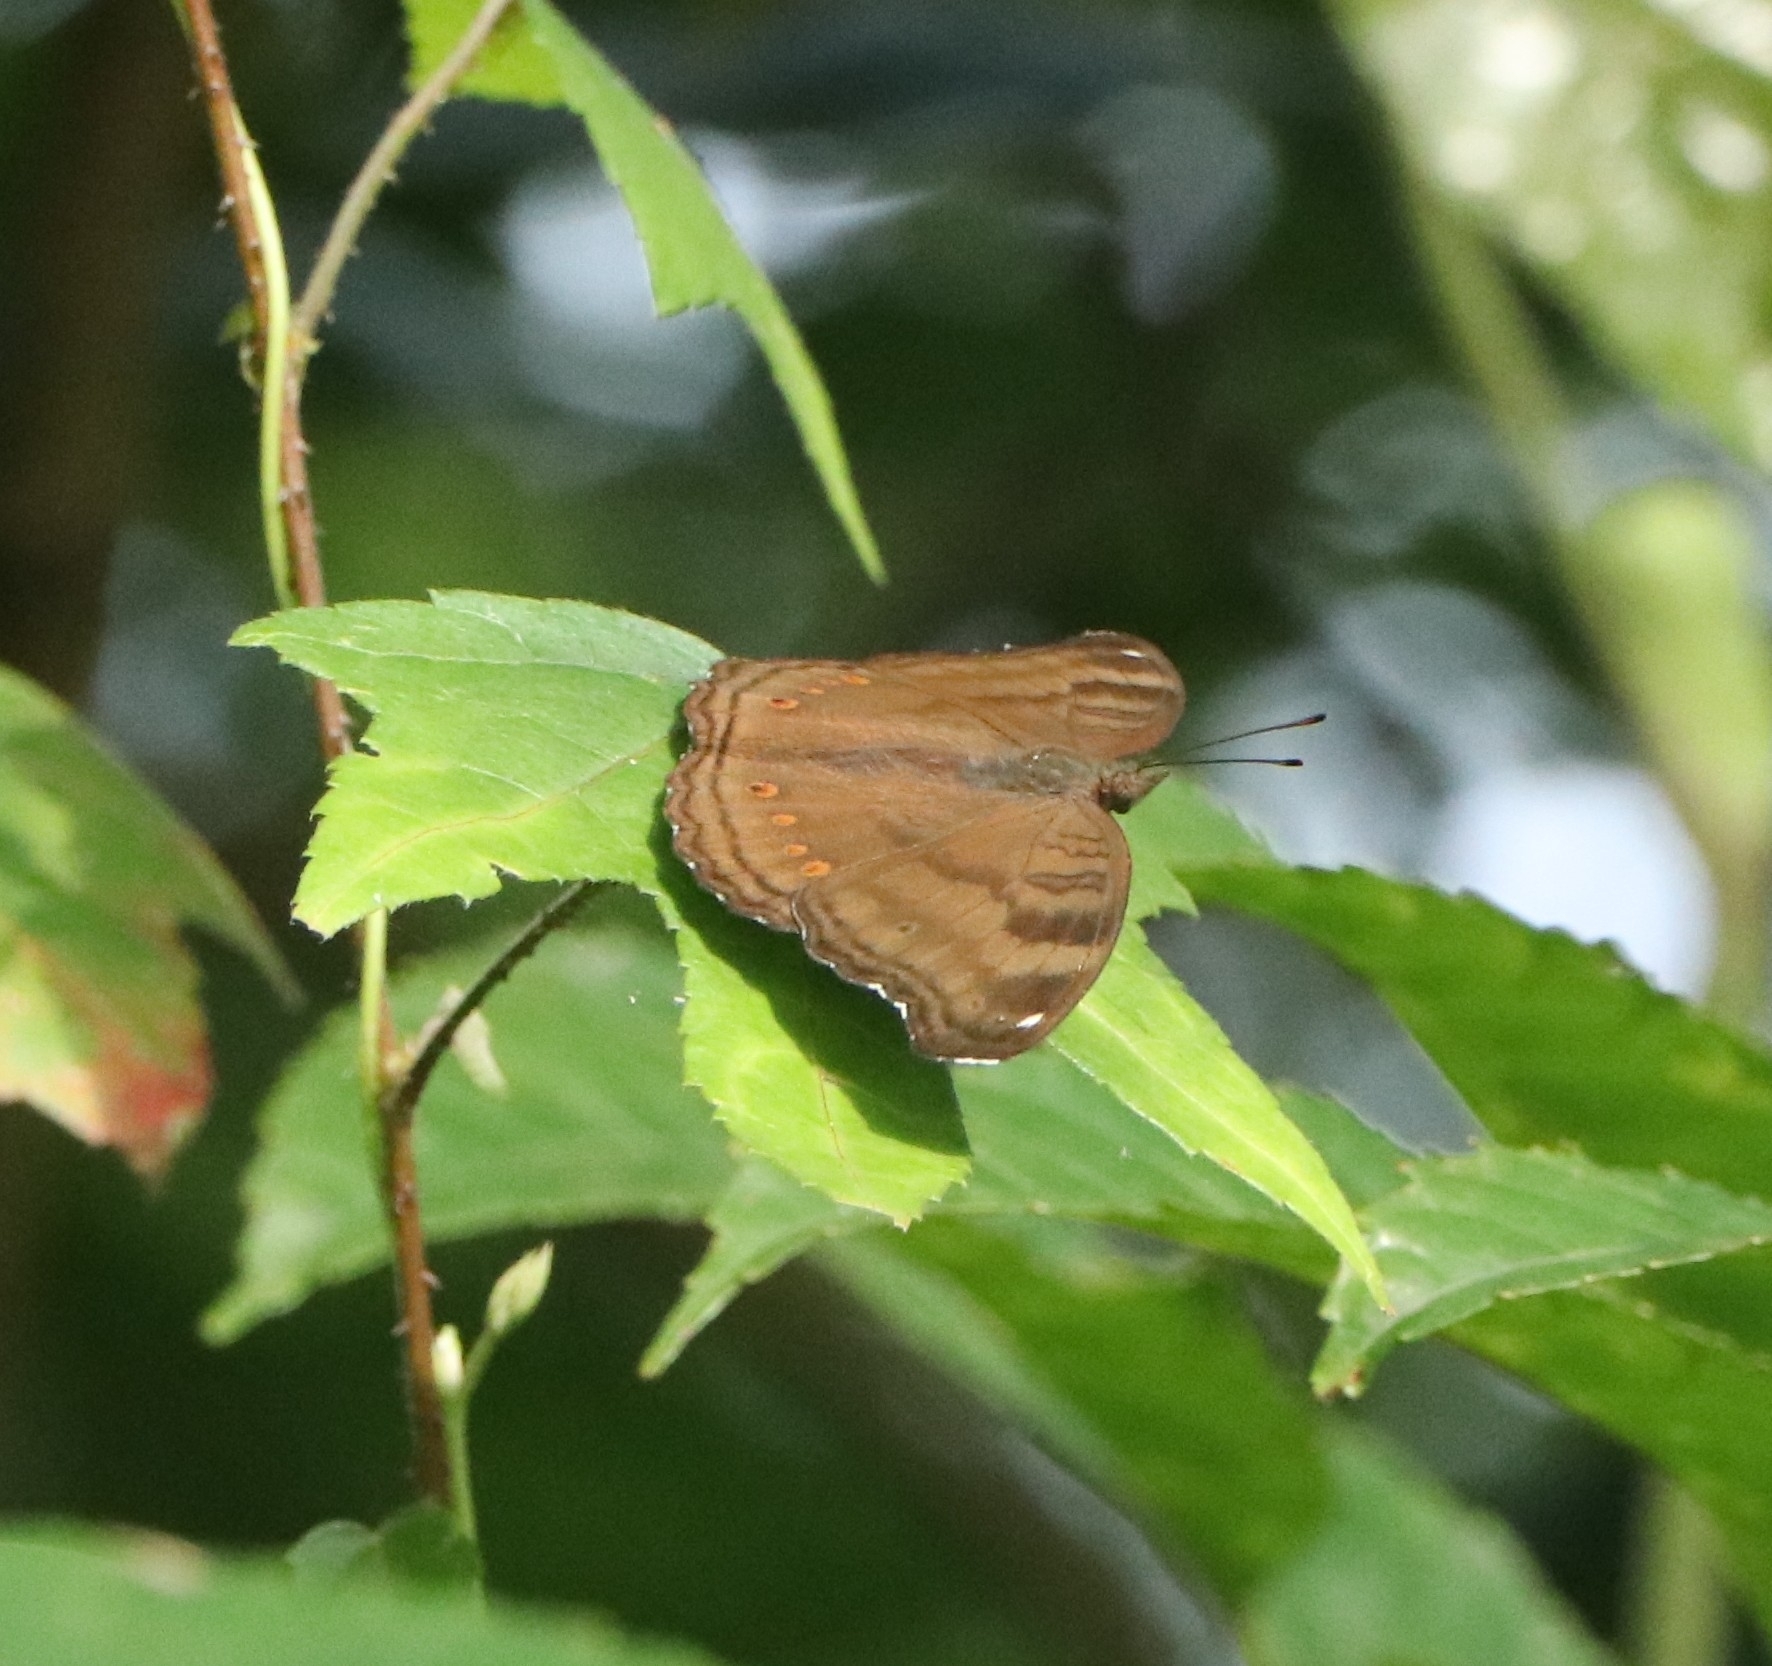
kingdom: Animalia
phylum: Arthropoda
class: Insecta
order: Lepidoptera
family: Nymphalidae
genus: Junonia
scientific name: Junonia iphita
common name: Chocolate pansy
